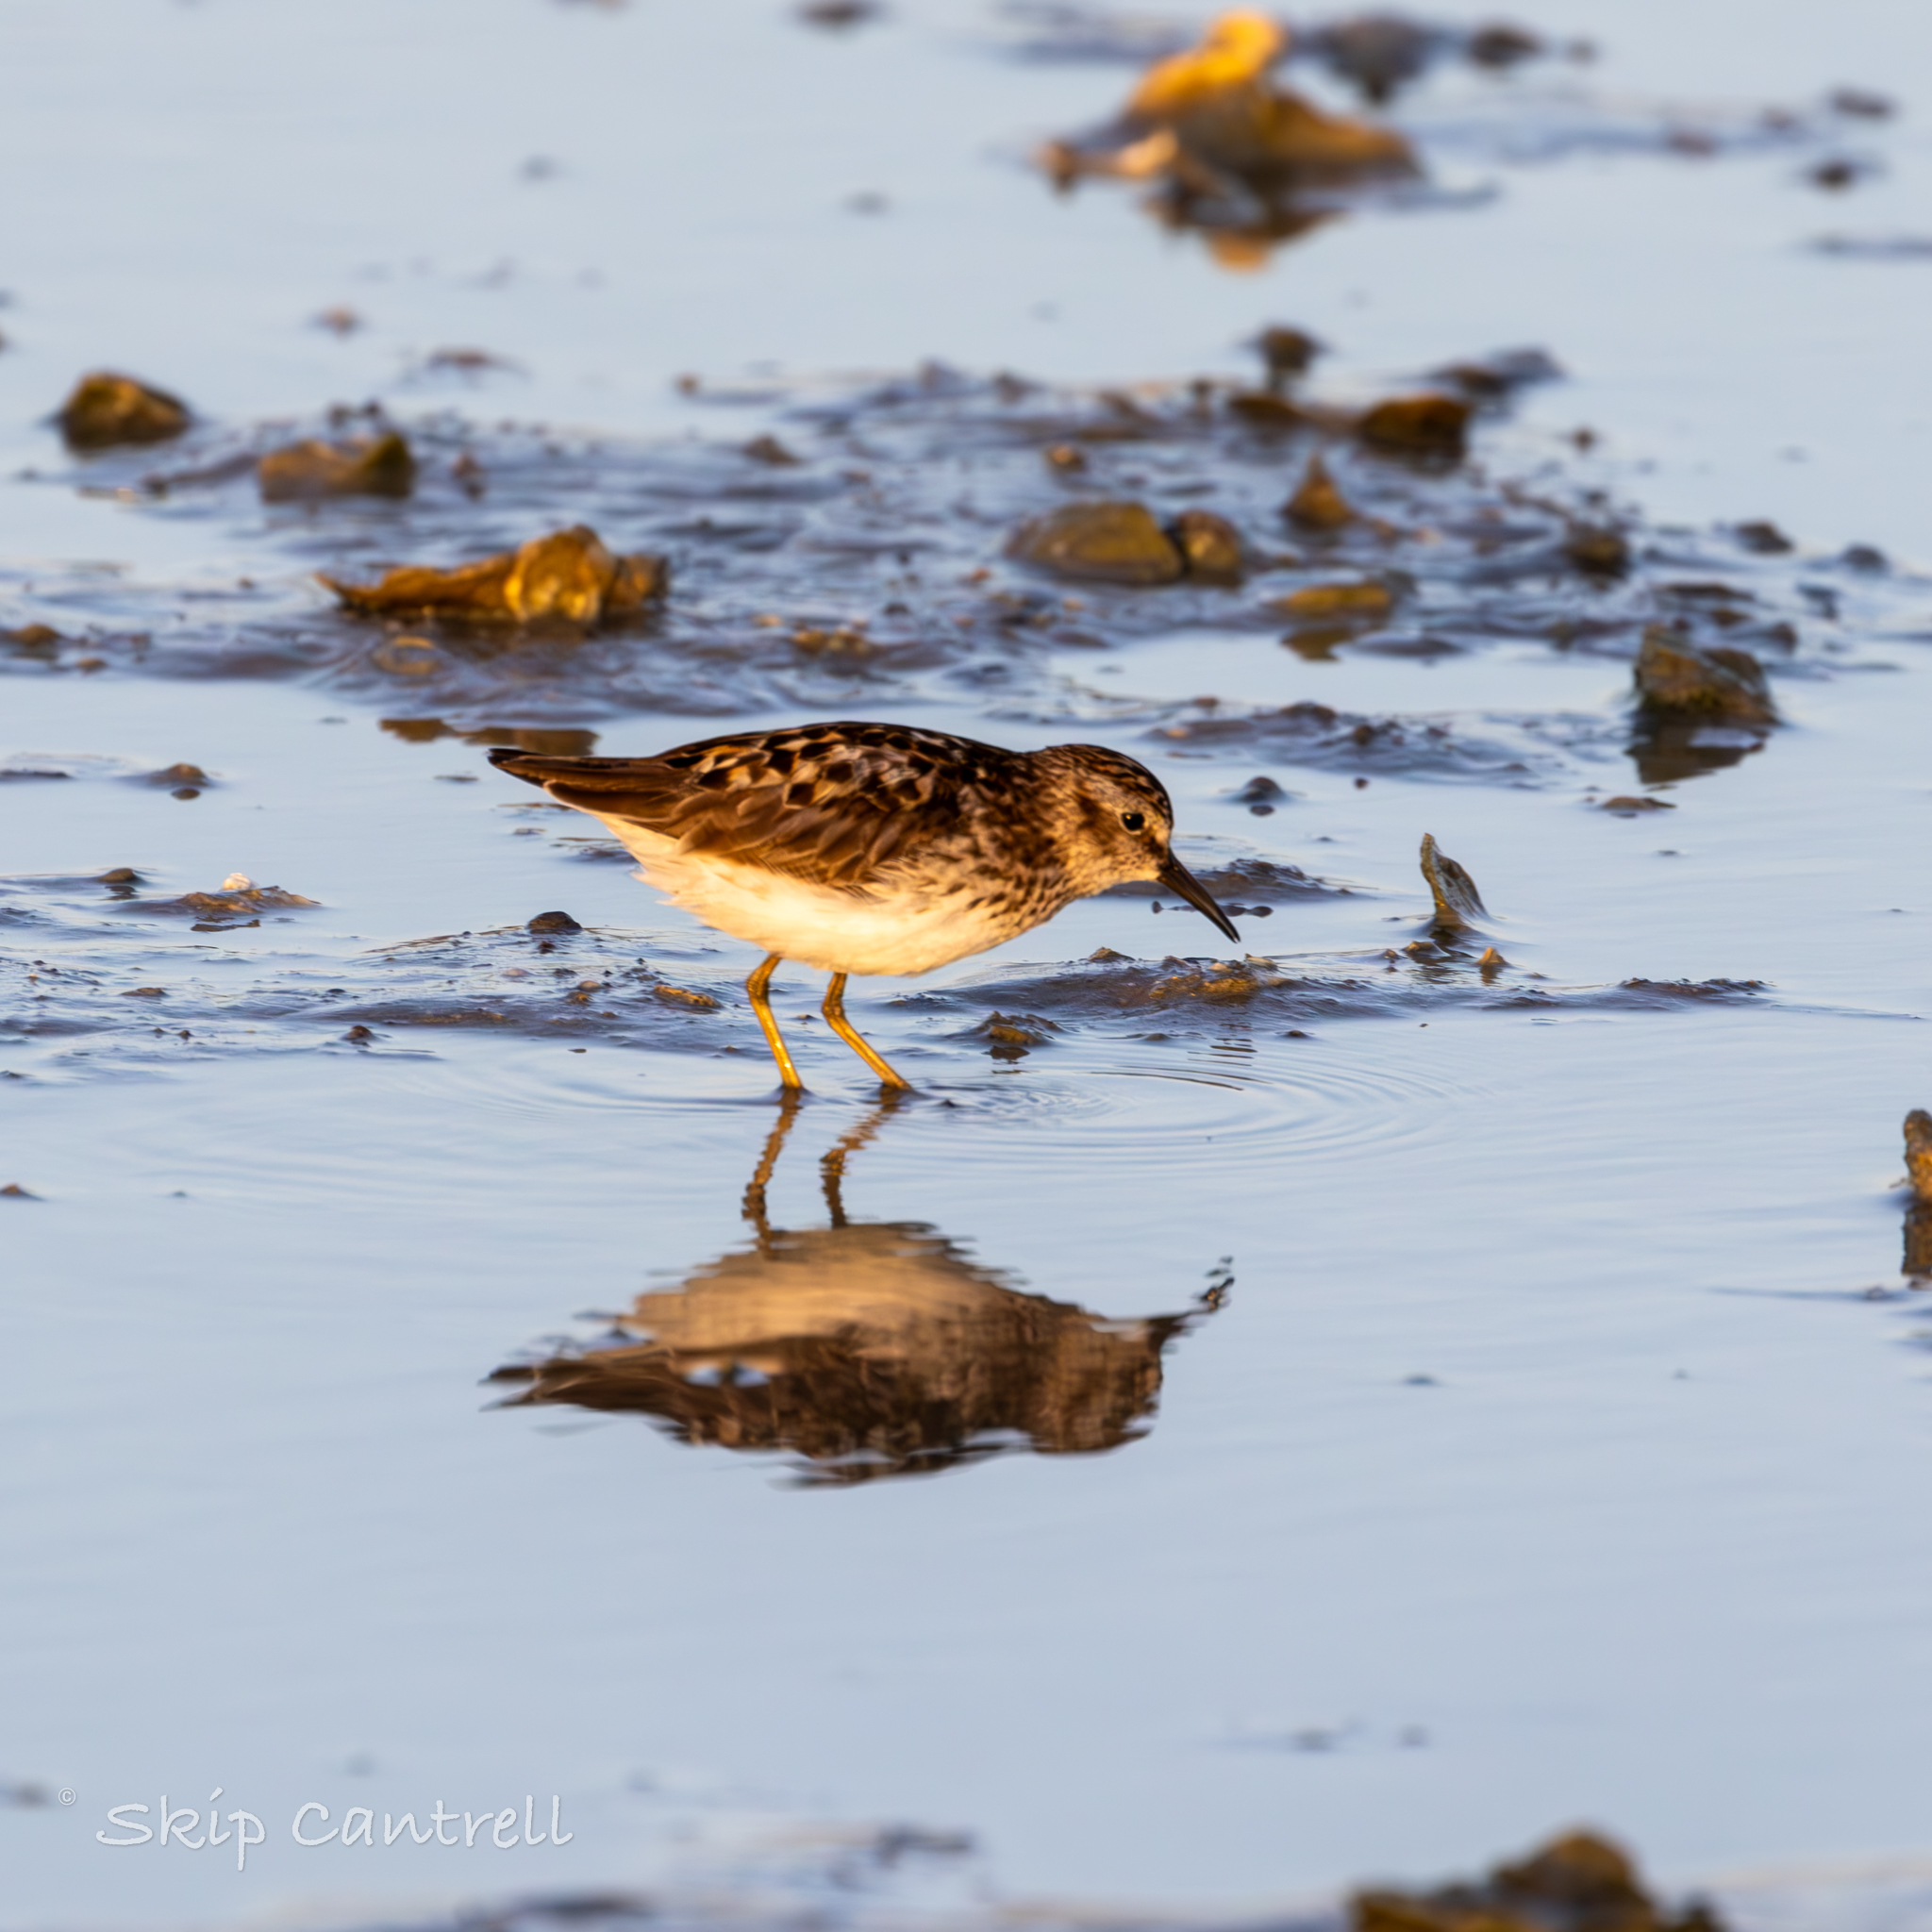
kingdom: Animalia
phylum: Chordata
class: Aves
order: Charadriiformes
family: Scolopacidae
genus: Calidris
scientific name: Calidris minutilla
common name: Least sandpiper
